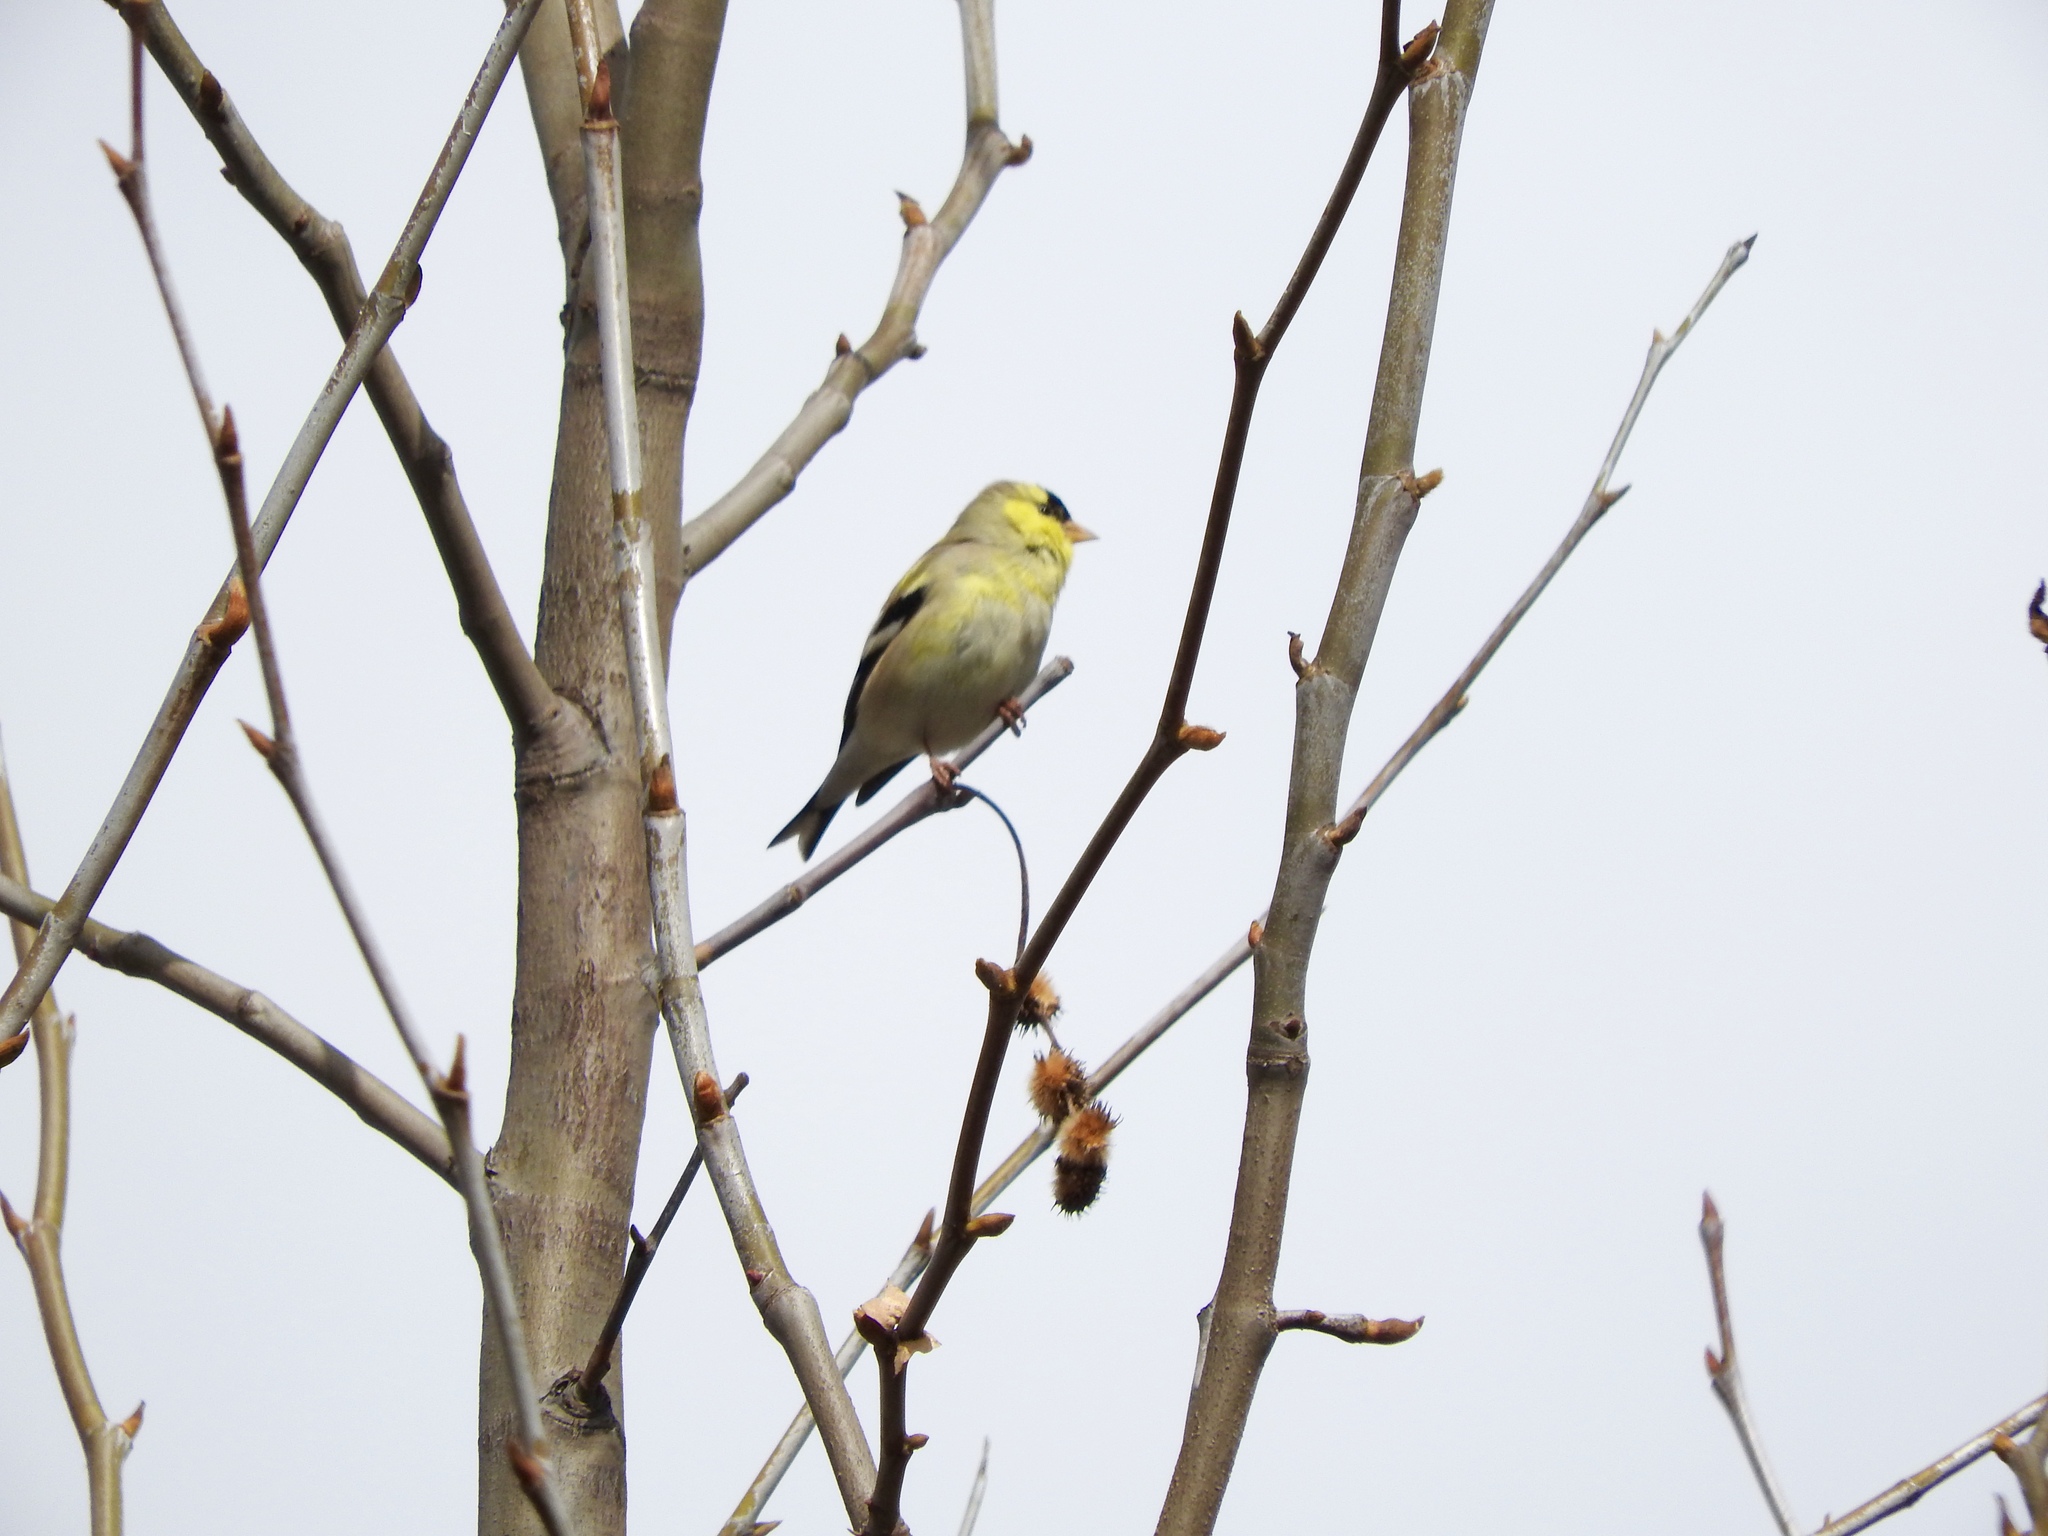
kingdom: Animalia
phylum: Chordata
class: Aves
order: Passeriformes
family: Fringillidae
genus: Spinus
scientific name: Spinus tristis
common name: American goldfinch
